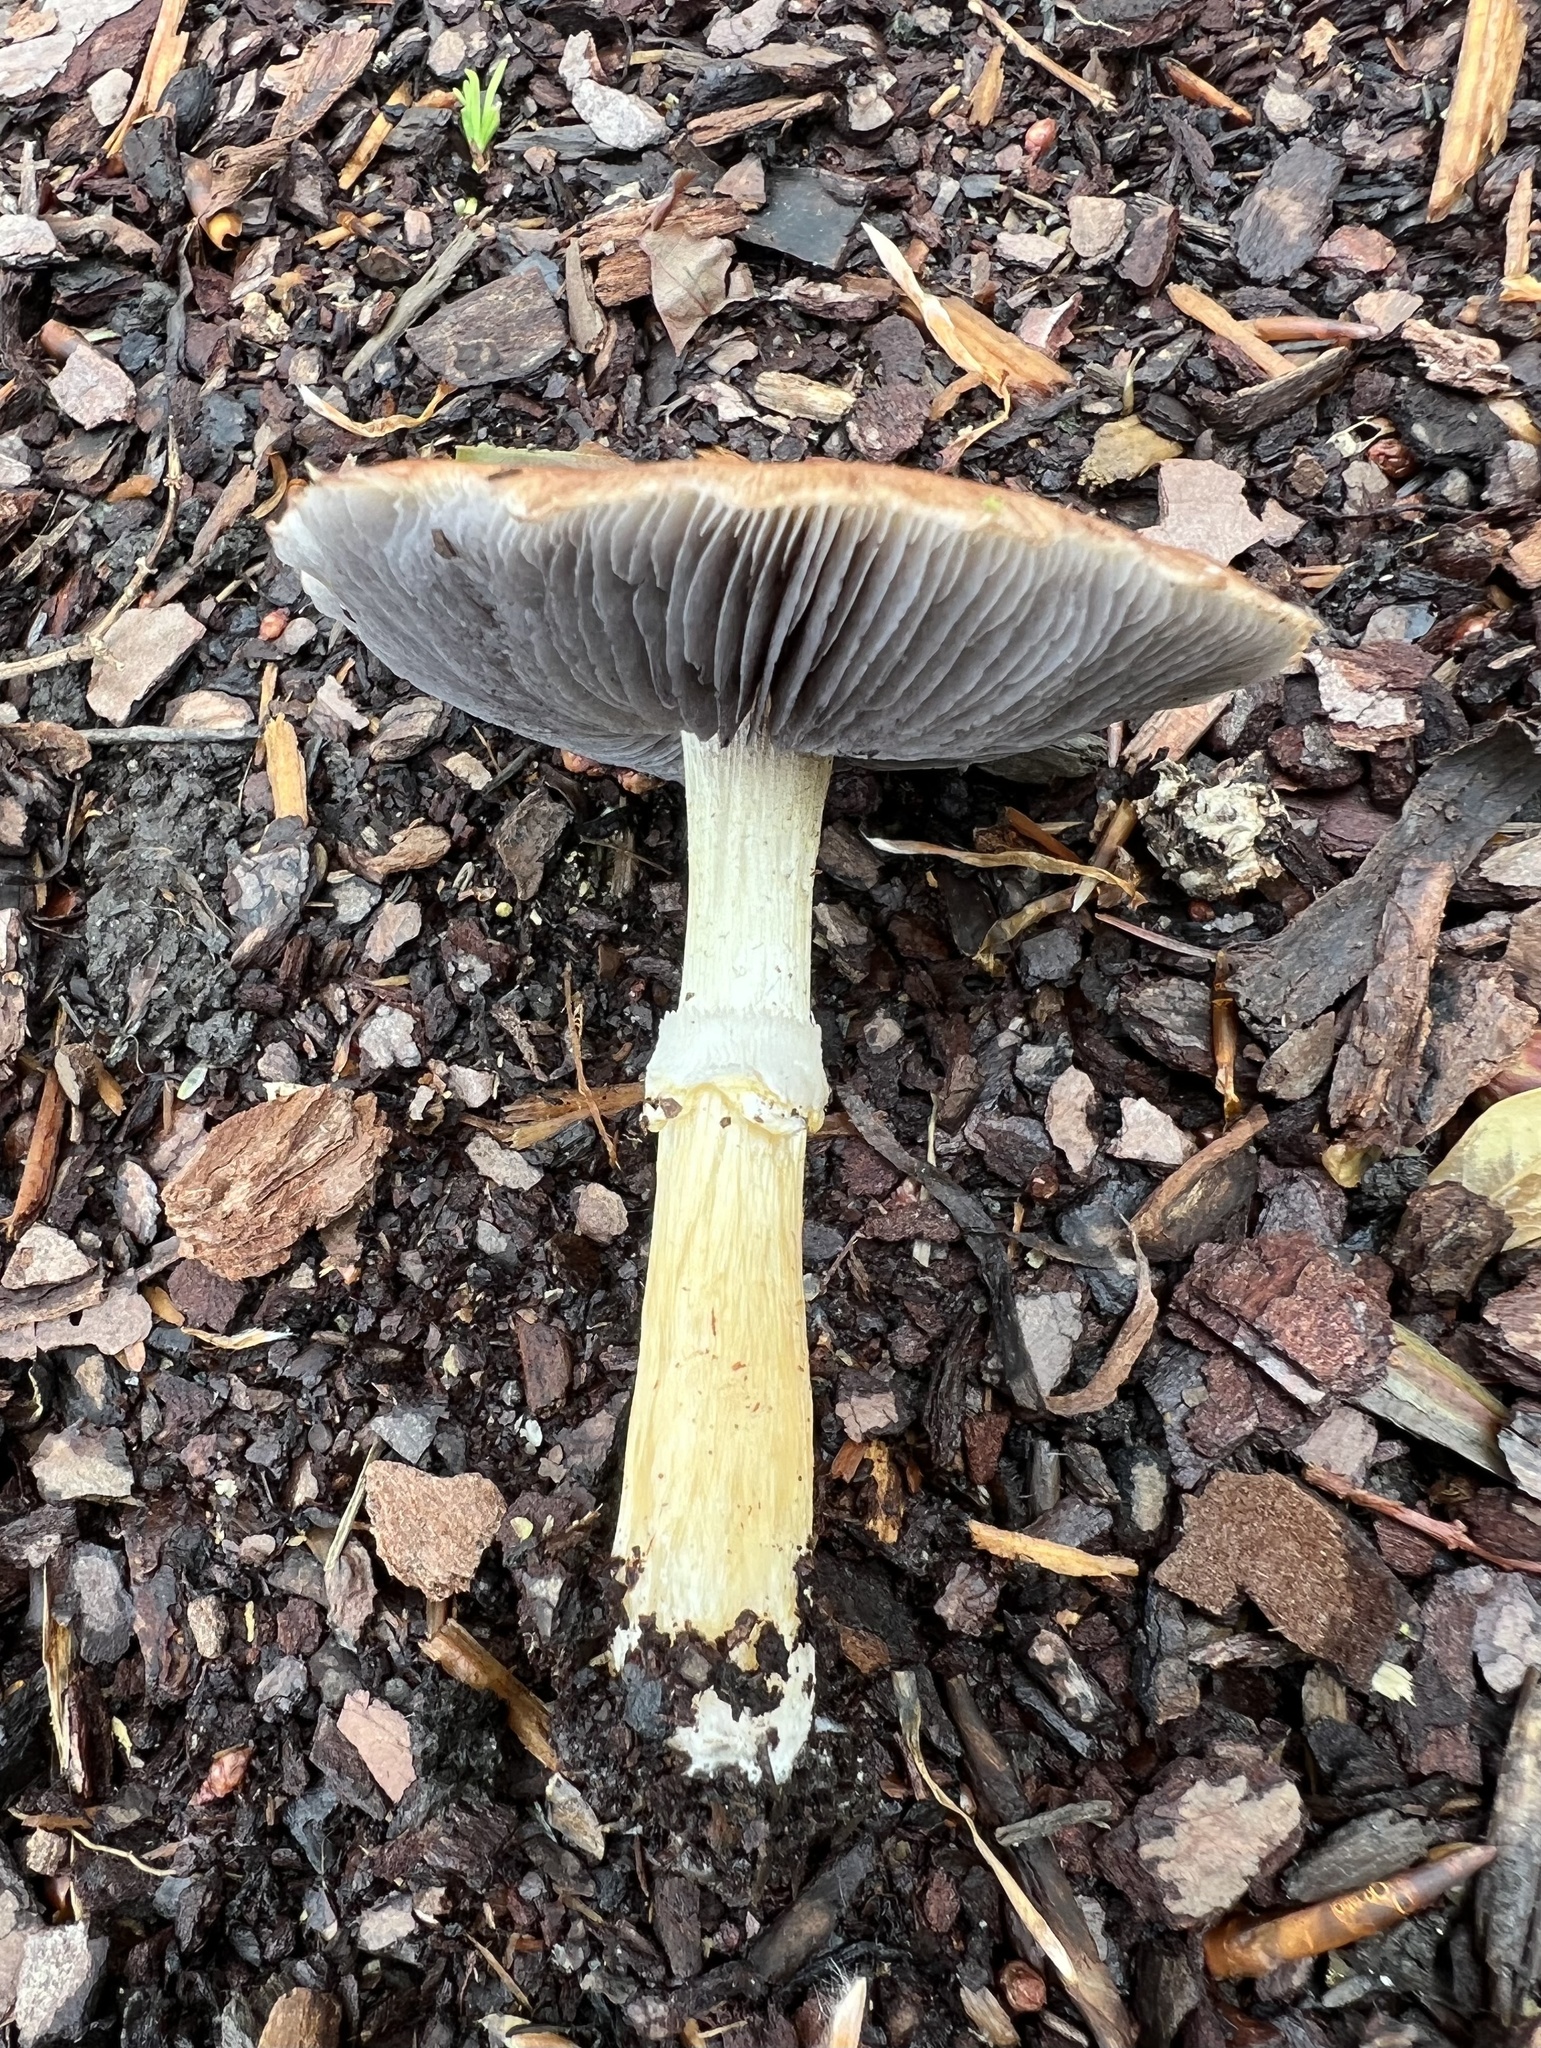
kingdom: Fungi
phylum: Basidiomycota
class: Agaricomycetes
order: Agaricales
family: Strophariaceae
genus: Stropharia
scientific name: Stropharia rugosoannulata
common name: Wine roundhead
